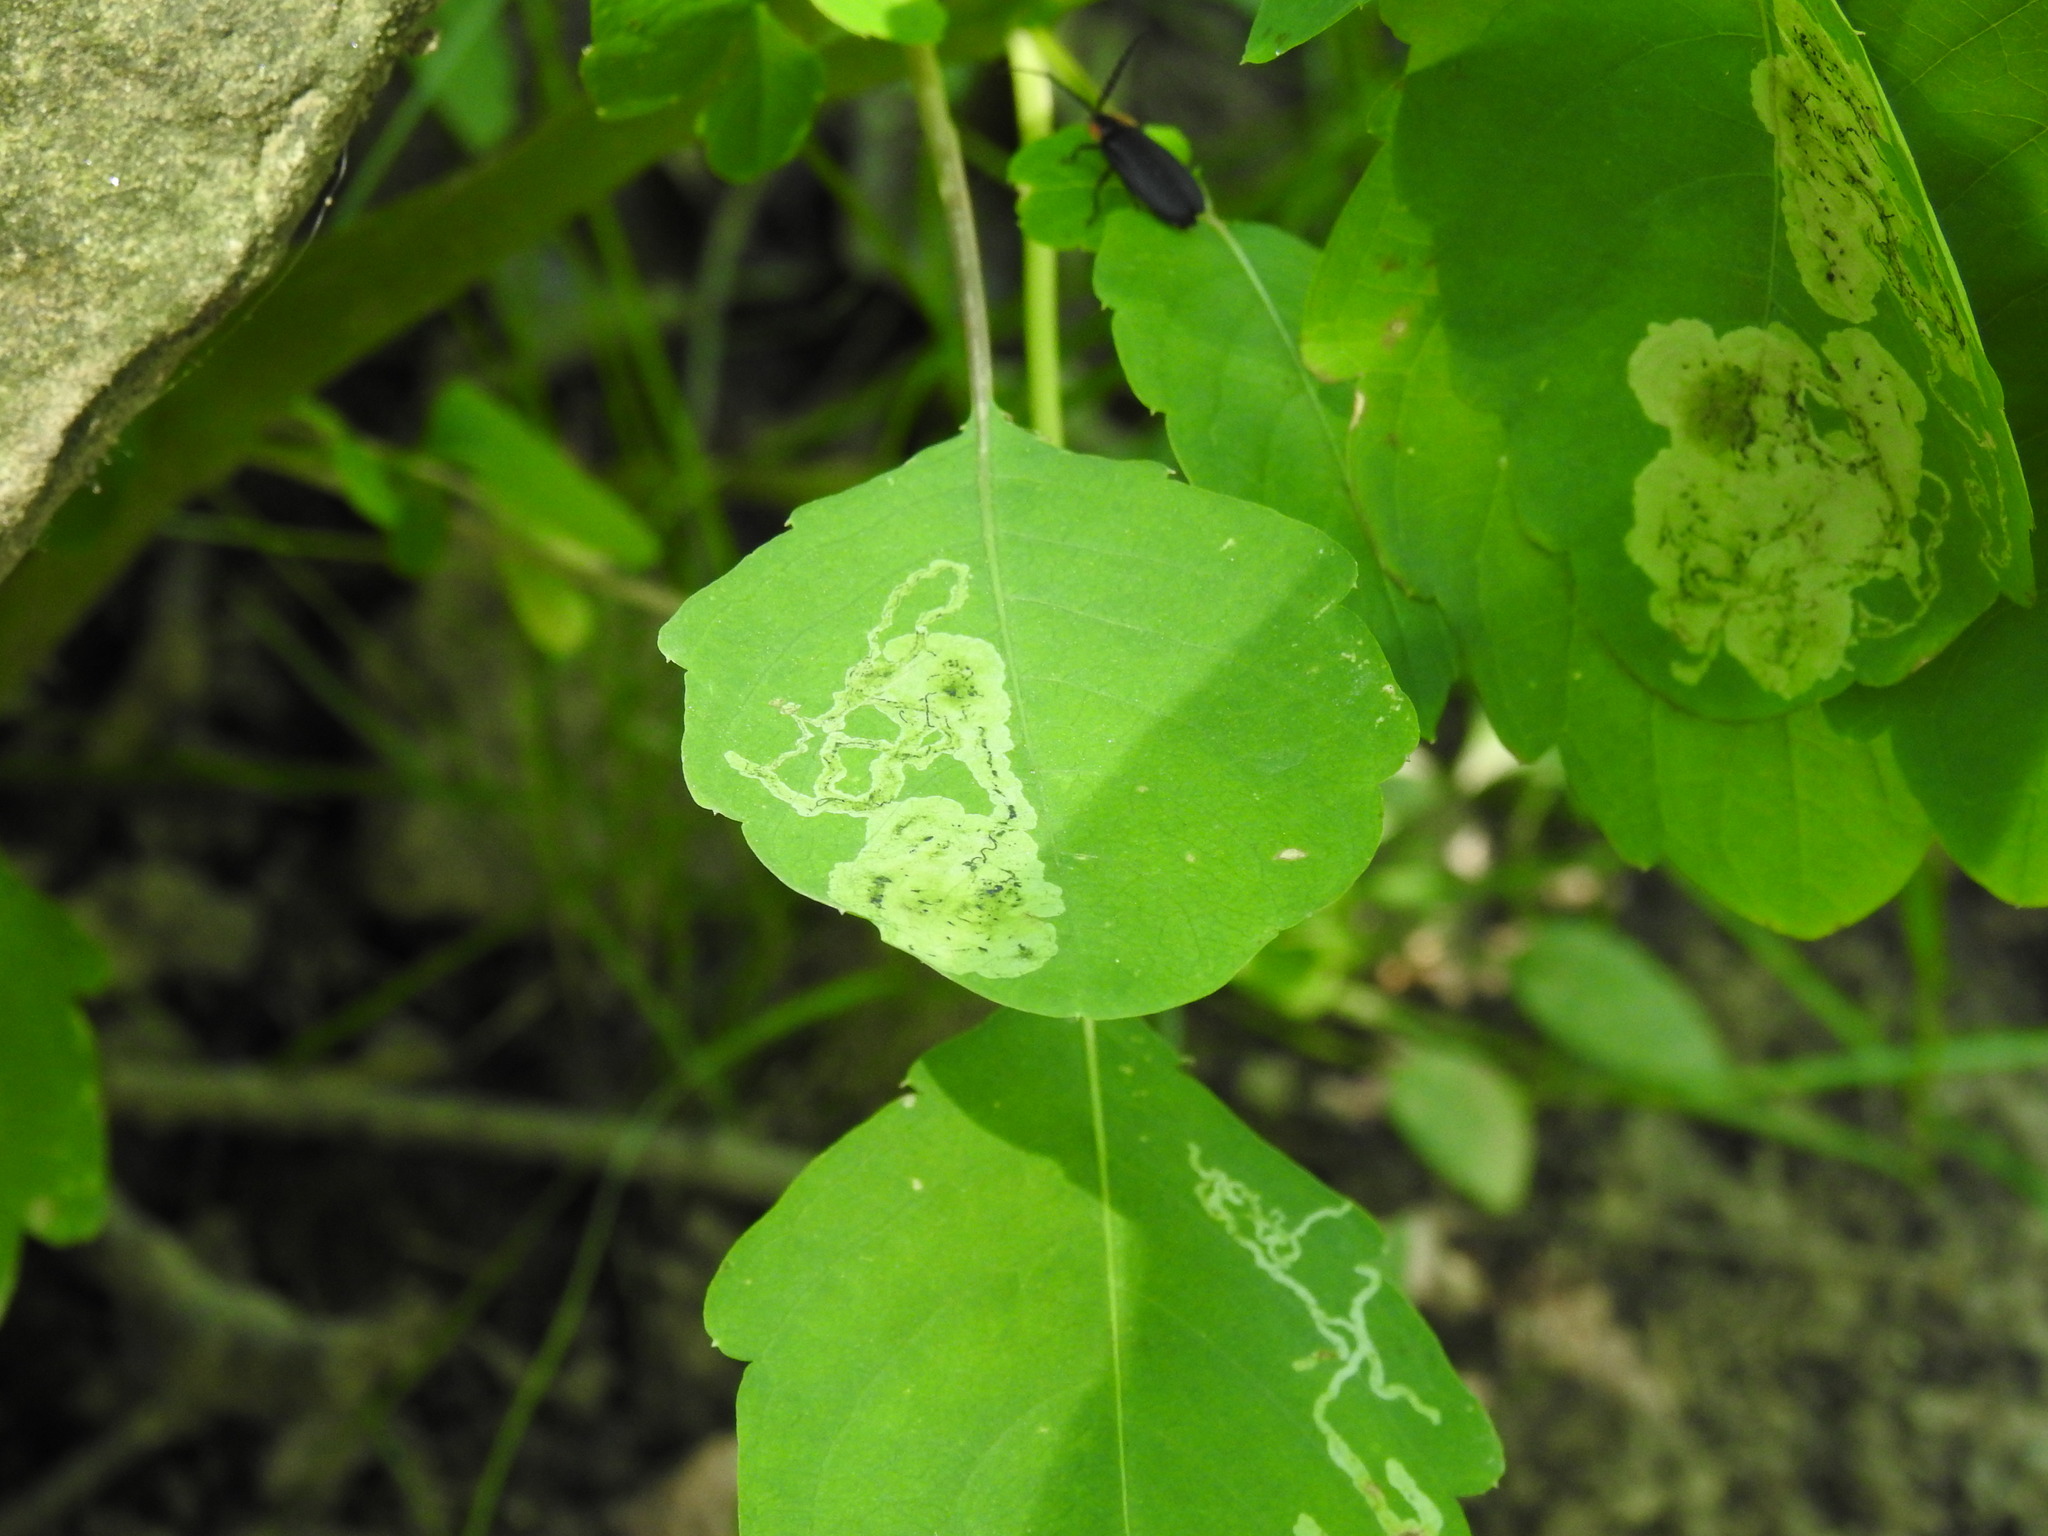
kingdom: Animalia
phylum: Arthropoda
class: Insecta
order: Diptera
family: Agromyzidae
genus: Phytoliriomyza
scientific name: Phytoliriomyza melampyga
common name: Jewelweed leaf-miner fly
